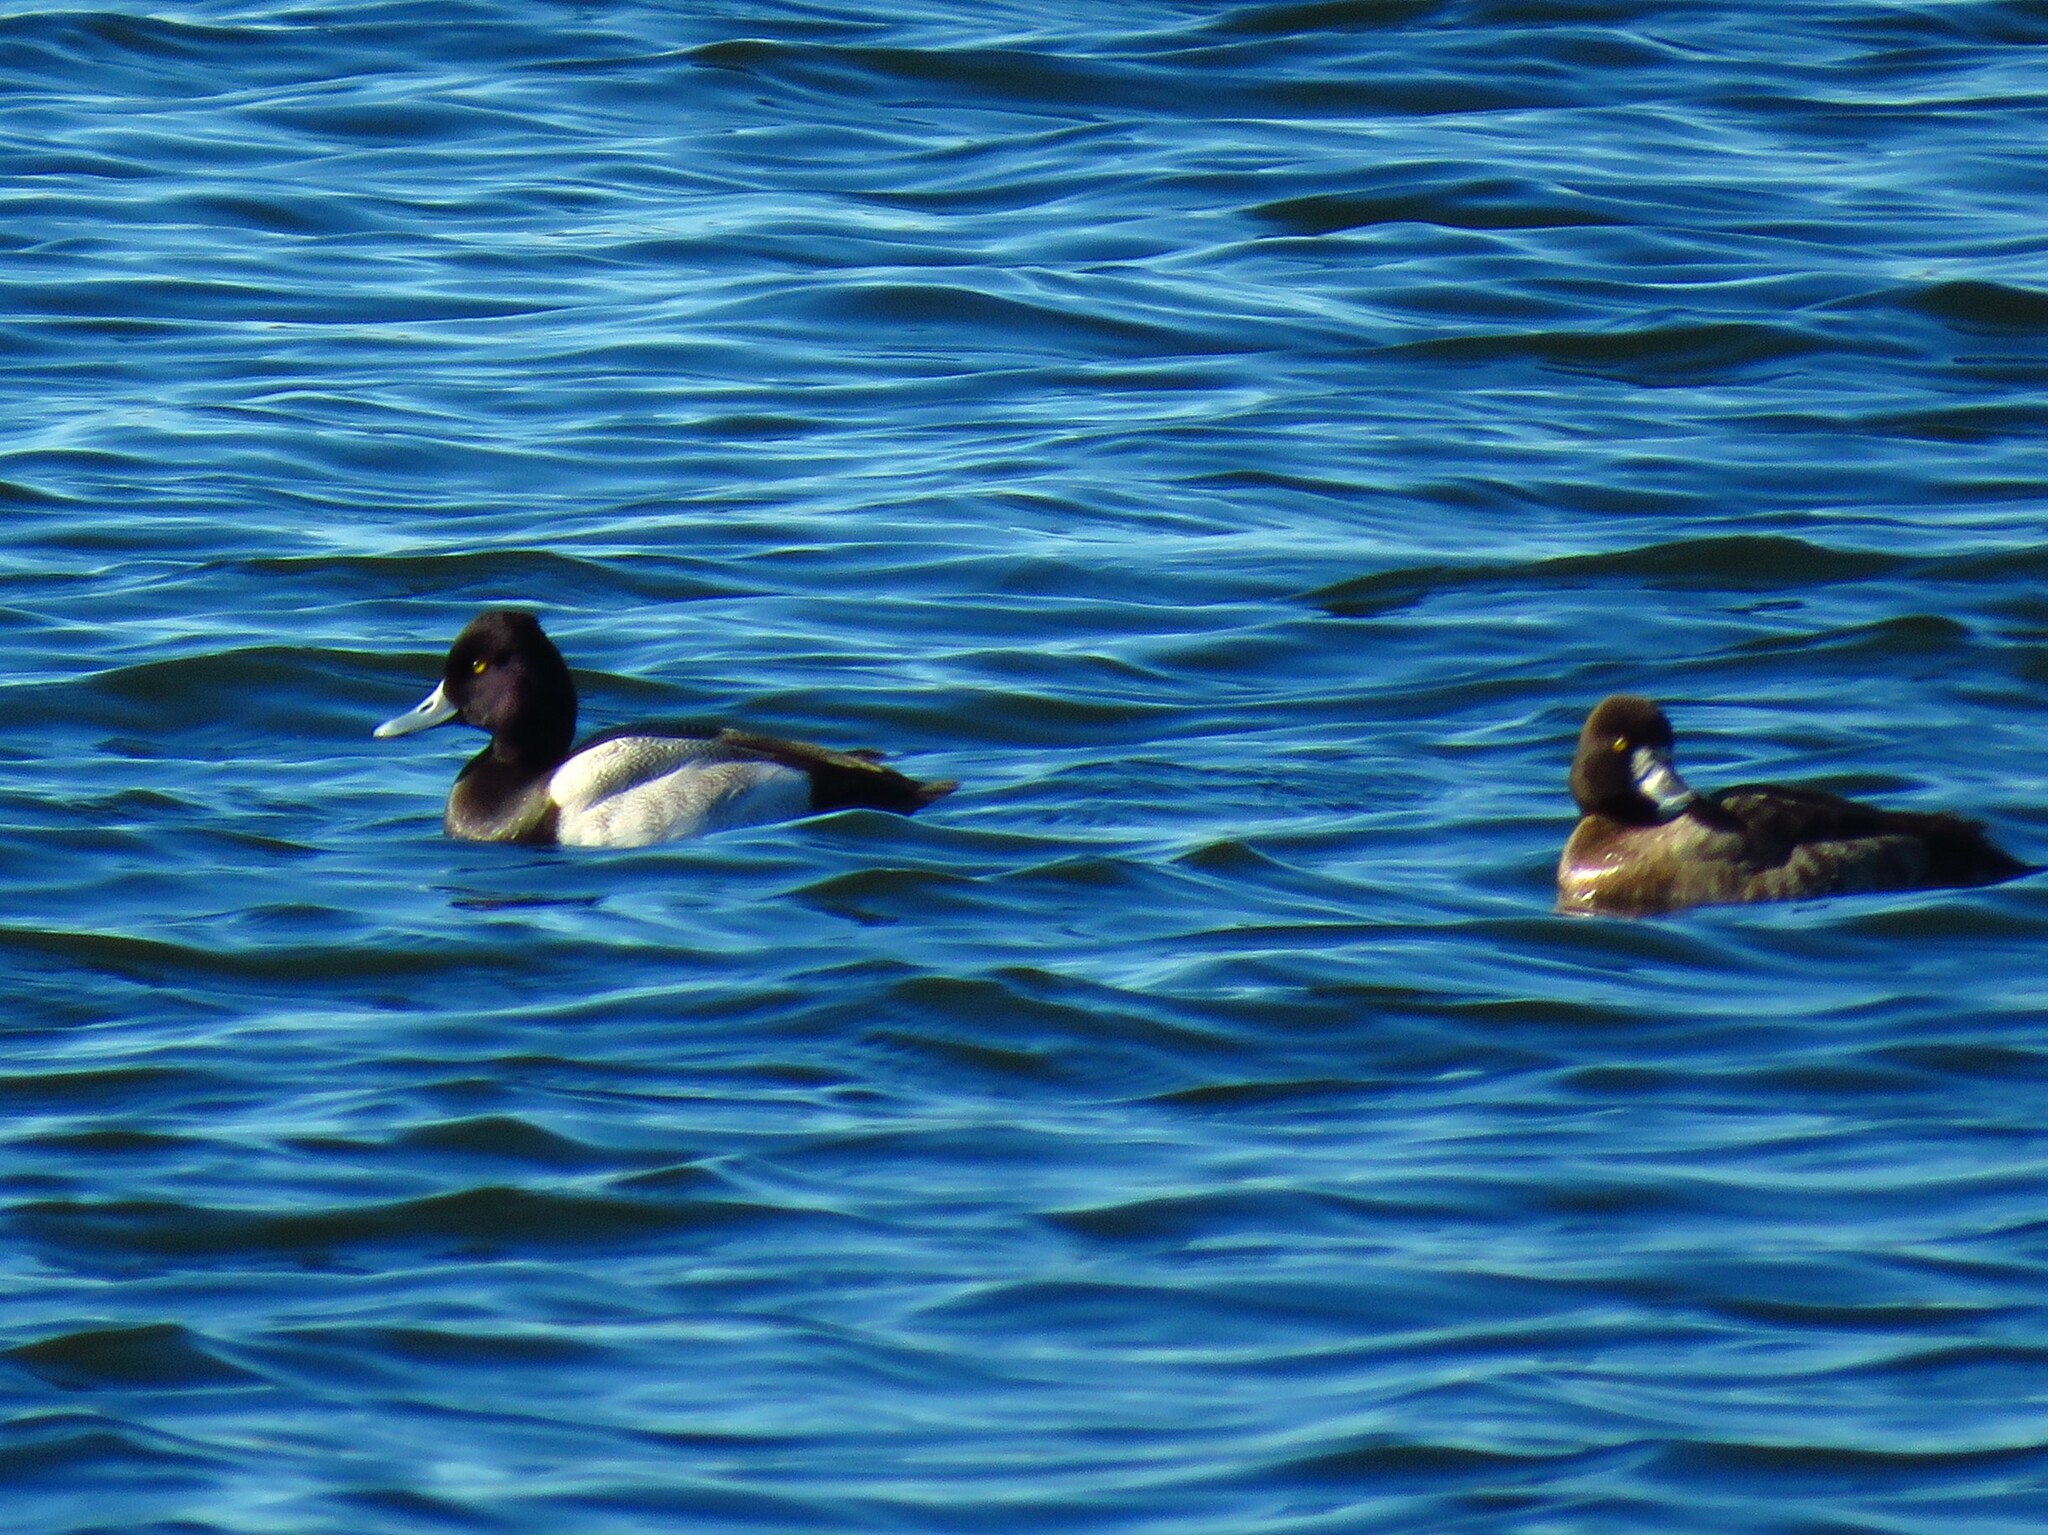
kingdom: Animalia
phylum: Chordata
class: Aves
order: Anseriformes
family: Anatidae
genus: Aythya
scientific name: Aythya affinis
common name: Lesser scaup
